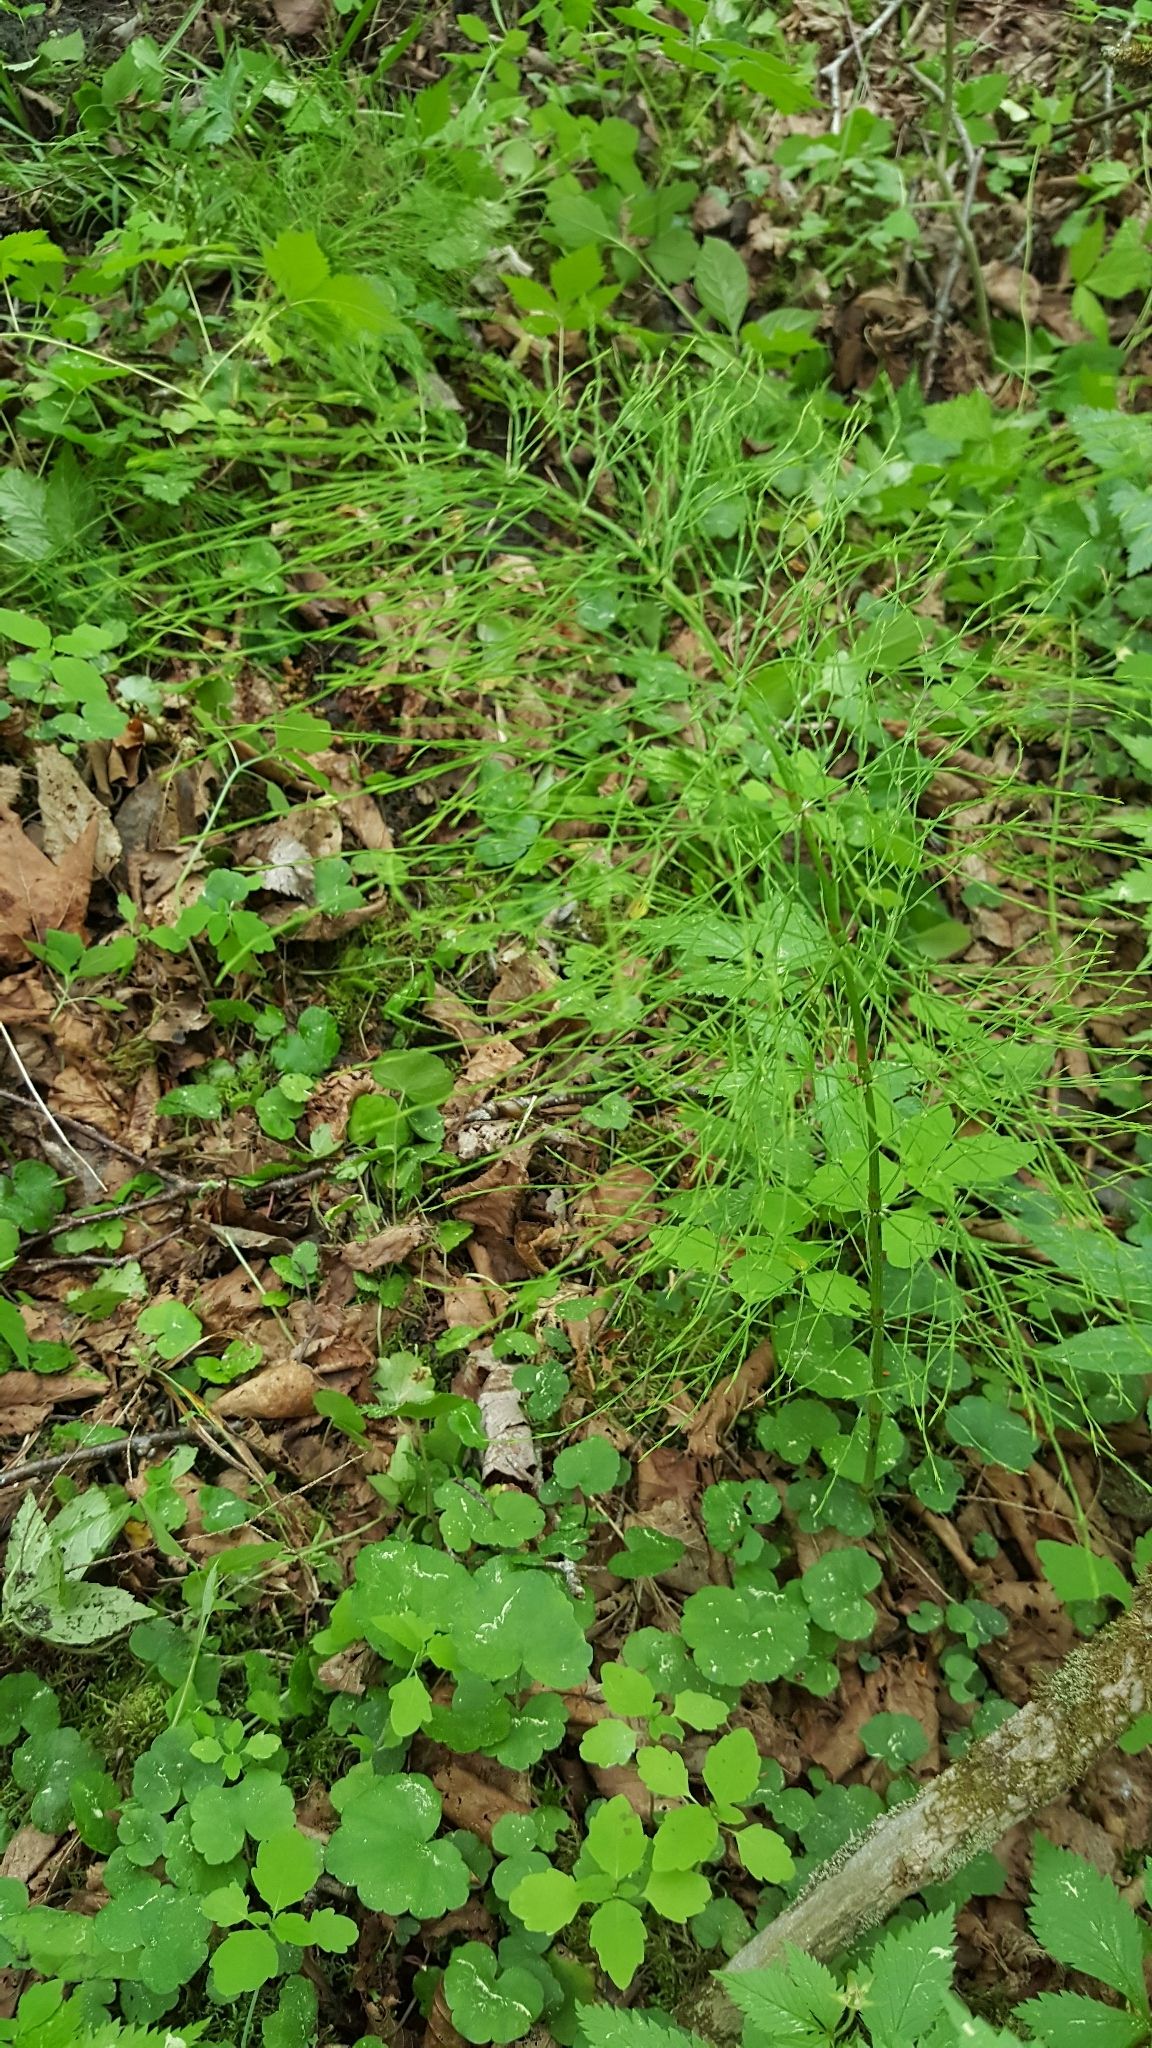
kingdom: Plantae
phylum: Tracheophyta
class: Polypodiopsida
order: Equisetales
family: Equisetaceae
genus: Equisetum
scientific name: Equisetum sylvaticum
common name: Wood horsetail
